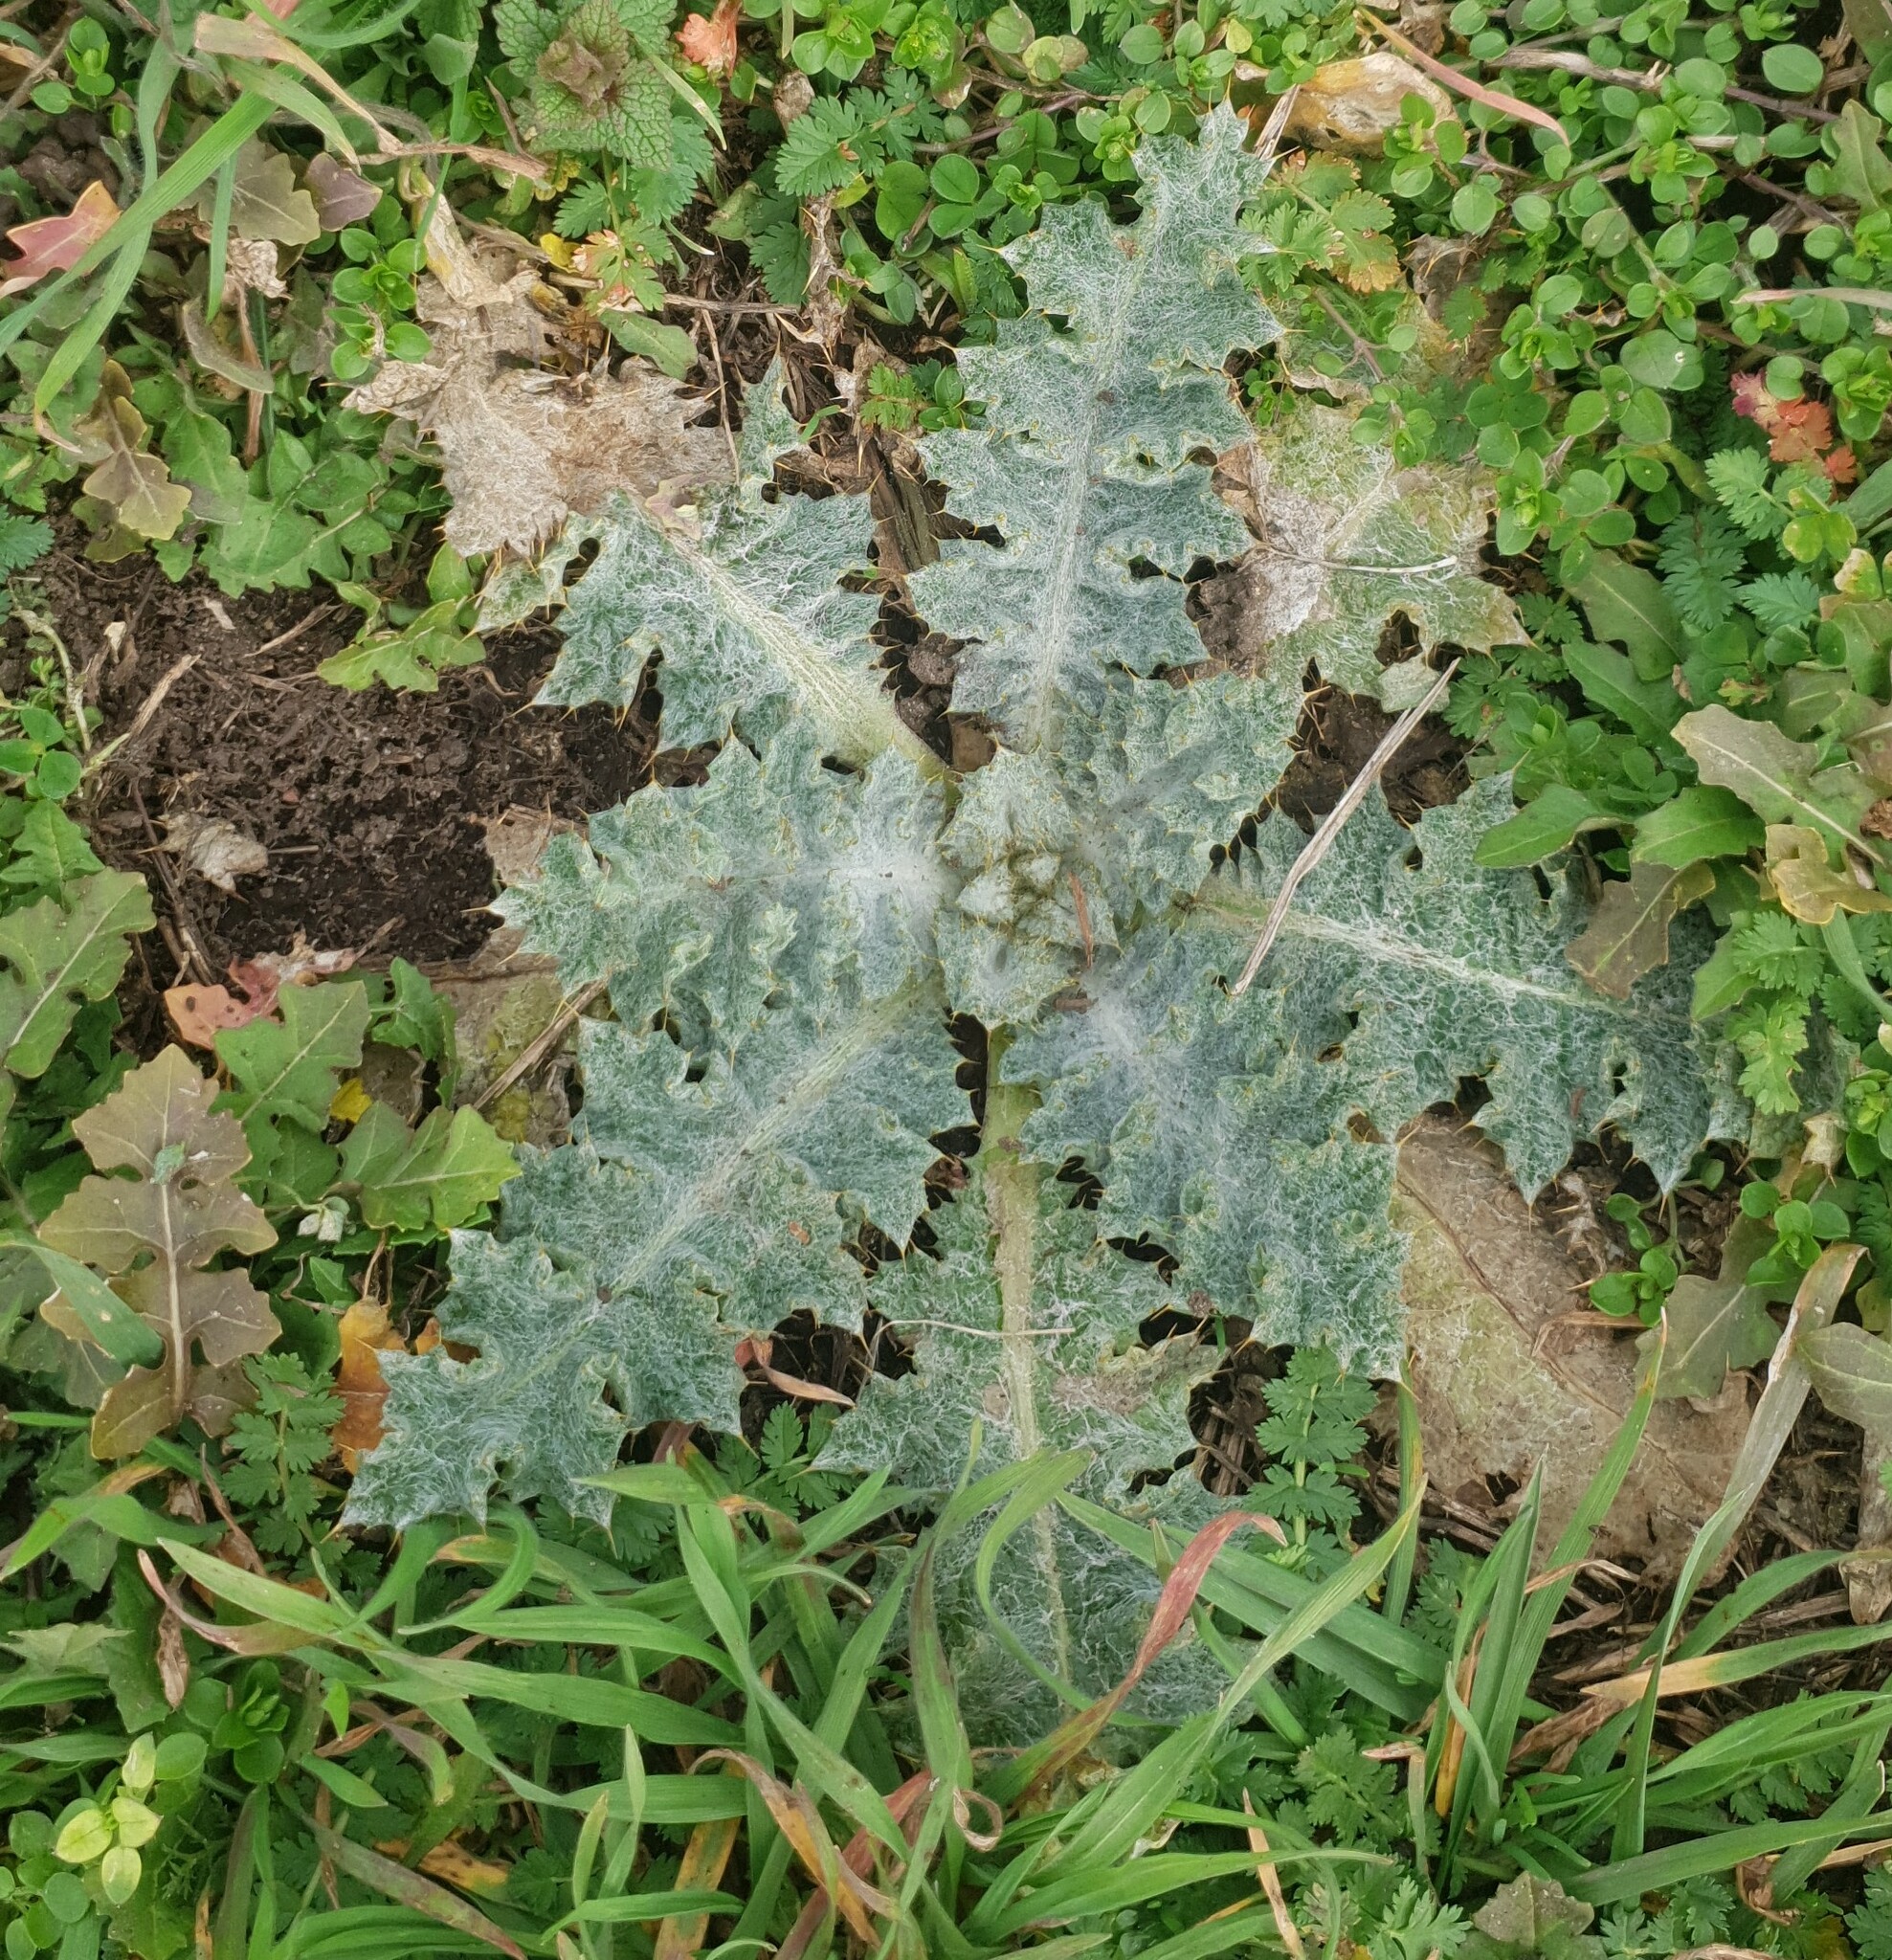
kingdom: Plantae
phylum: Tracheophyta
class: Magnoliopsida
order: Asterales
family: Asteraceae
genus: Onopordum
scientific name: Onopordum acanthium
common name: Scotch thistle
